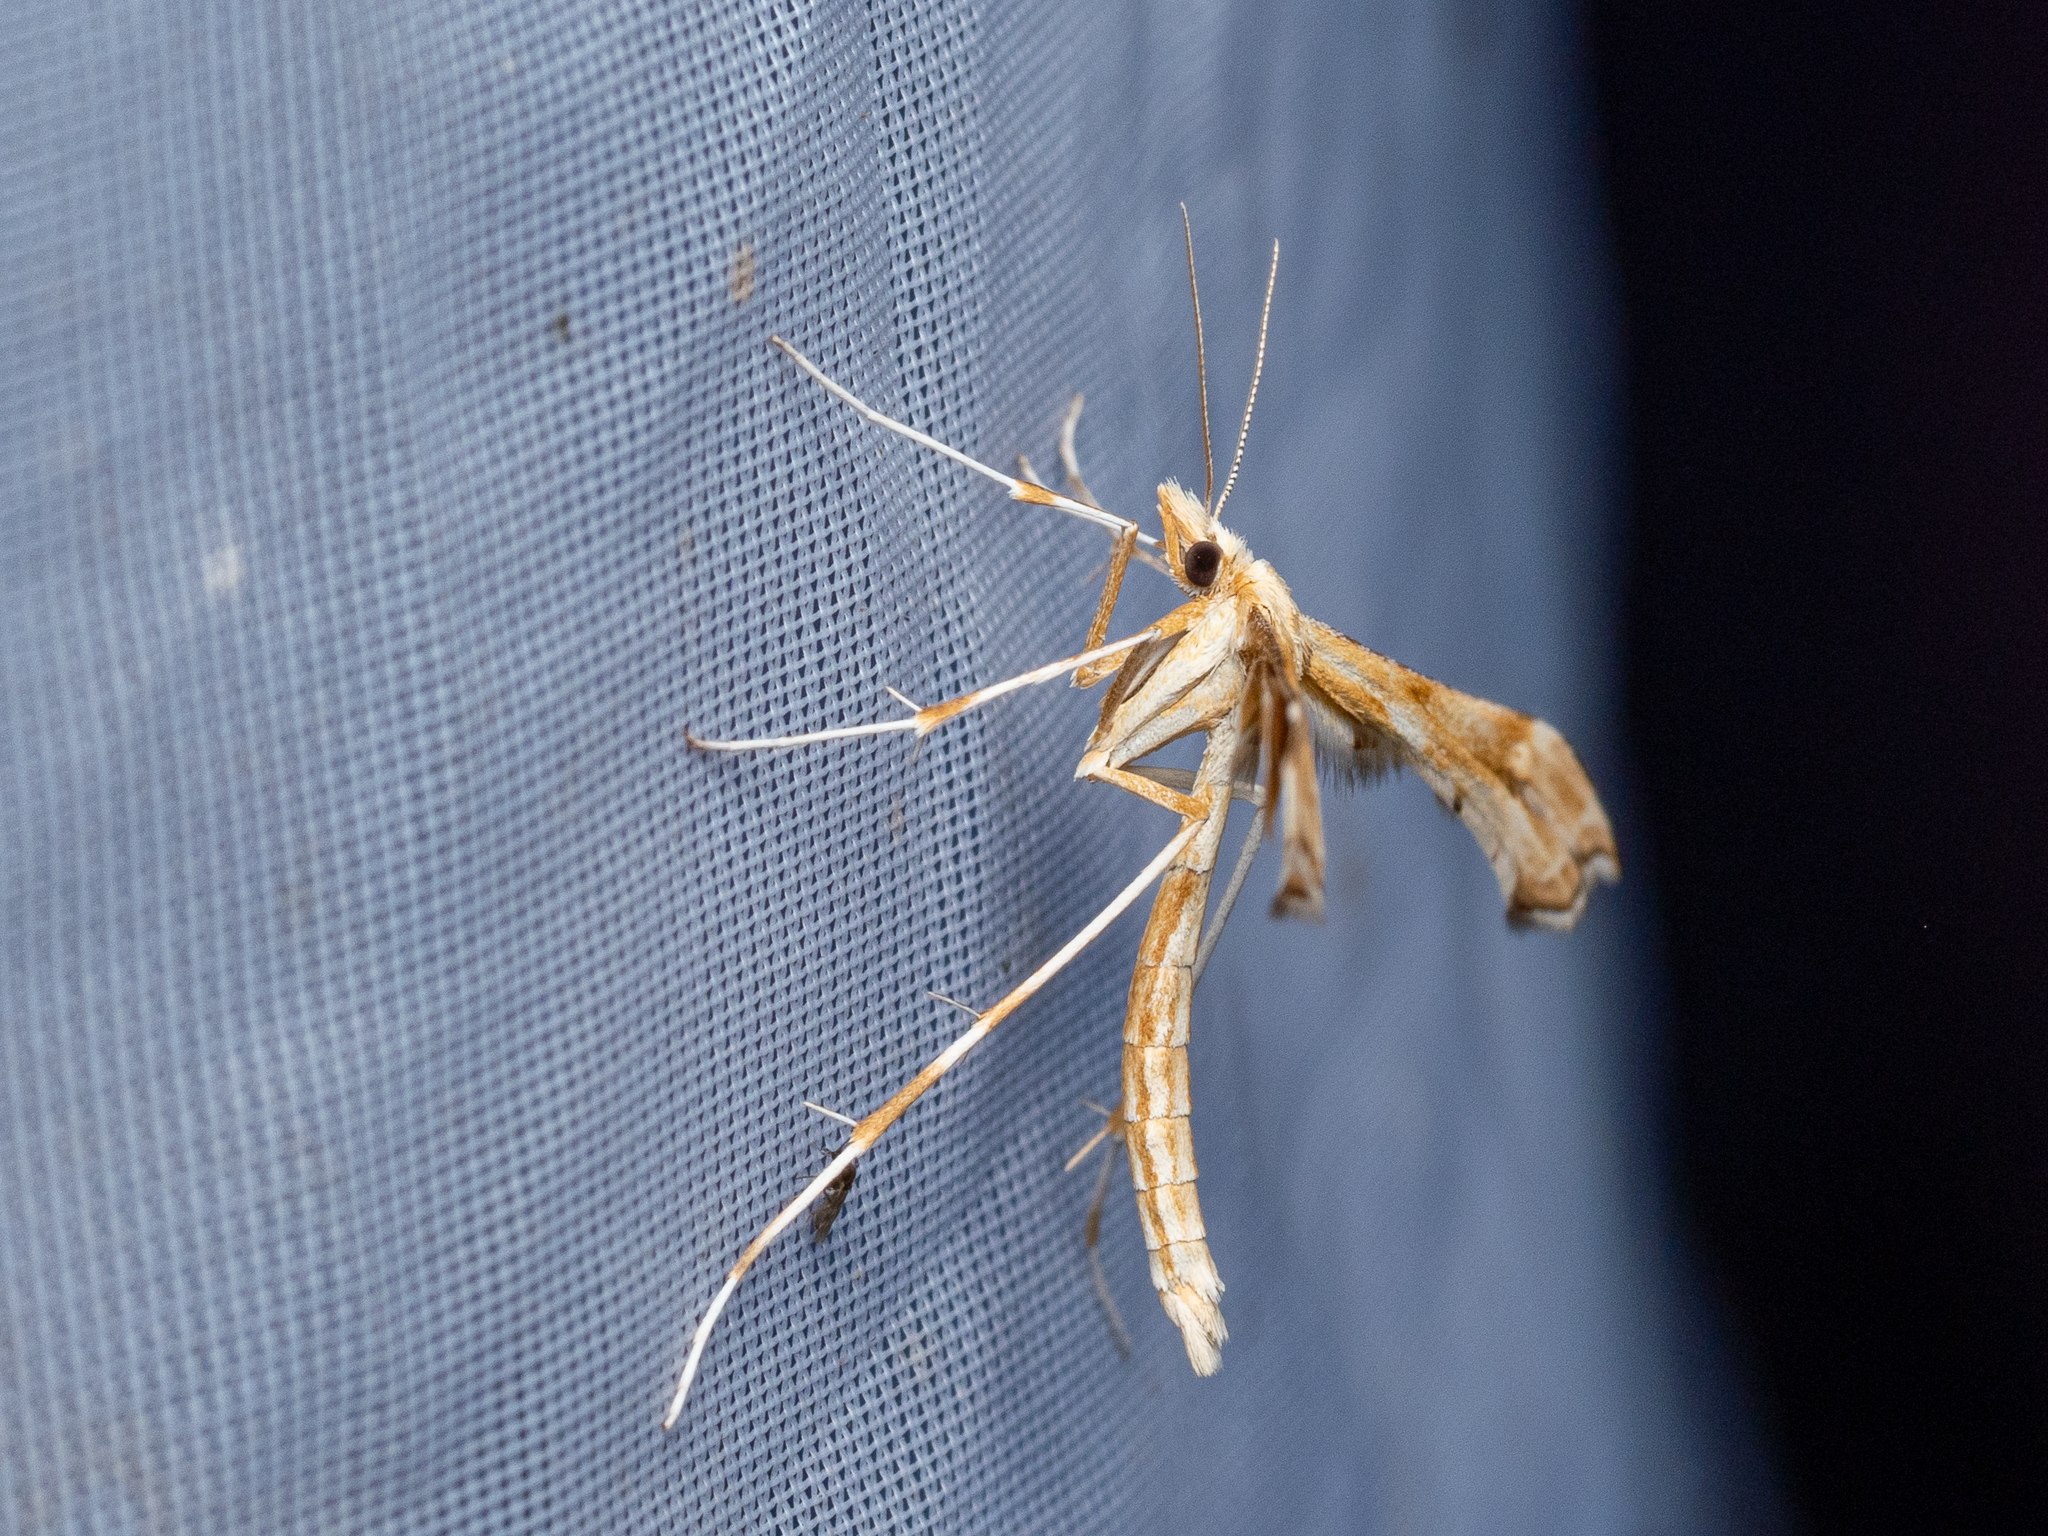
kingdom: Animalia
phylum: Arthropoda
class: Insecta
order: Lepidoptera
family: Pterophoridae
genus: Gillmeria
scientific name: Gillmeria ochrodactyla
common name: Tansy plume
